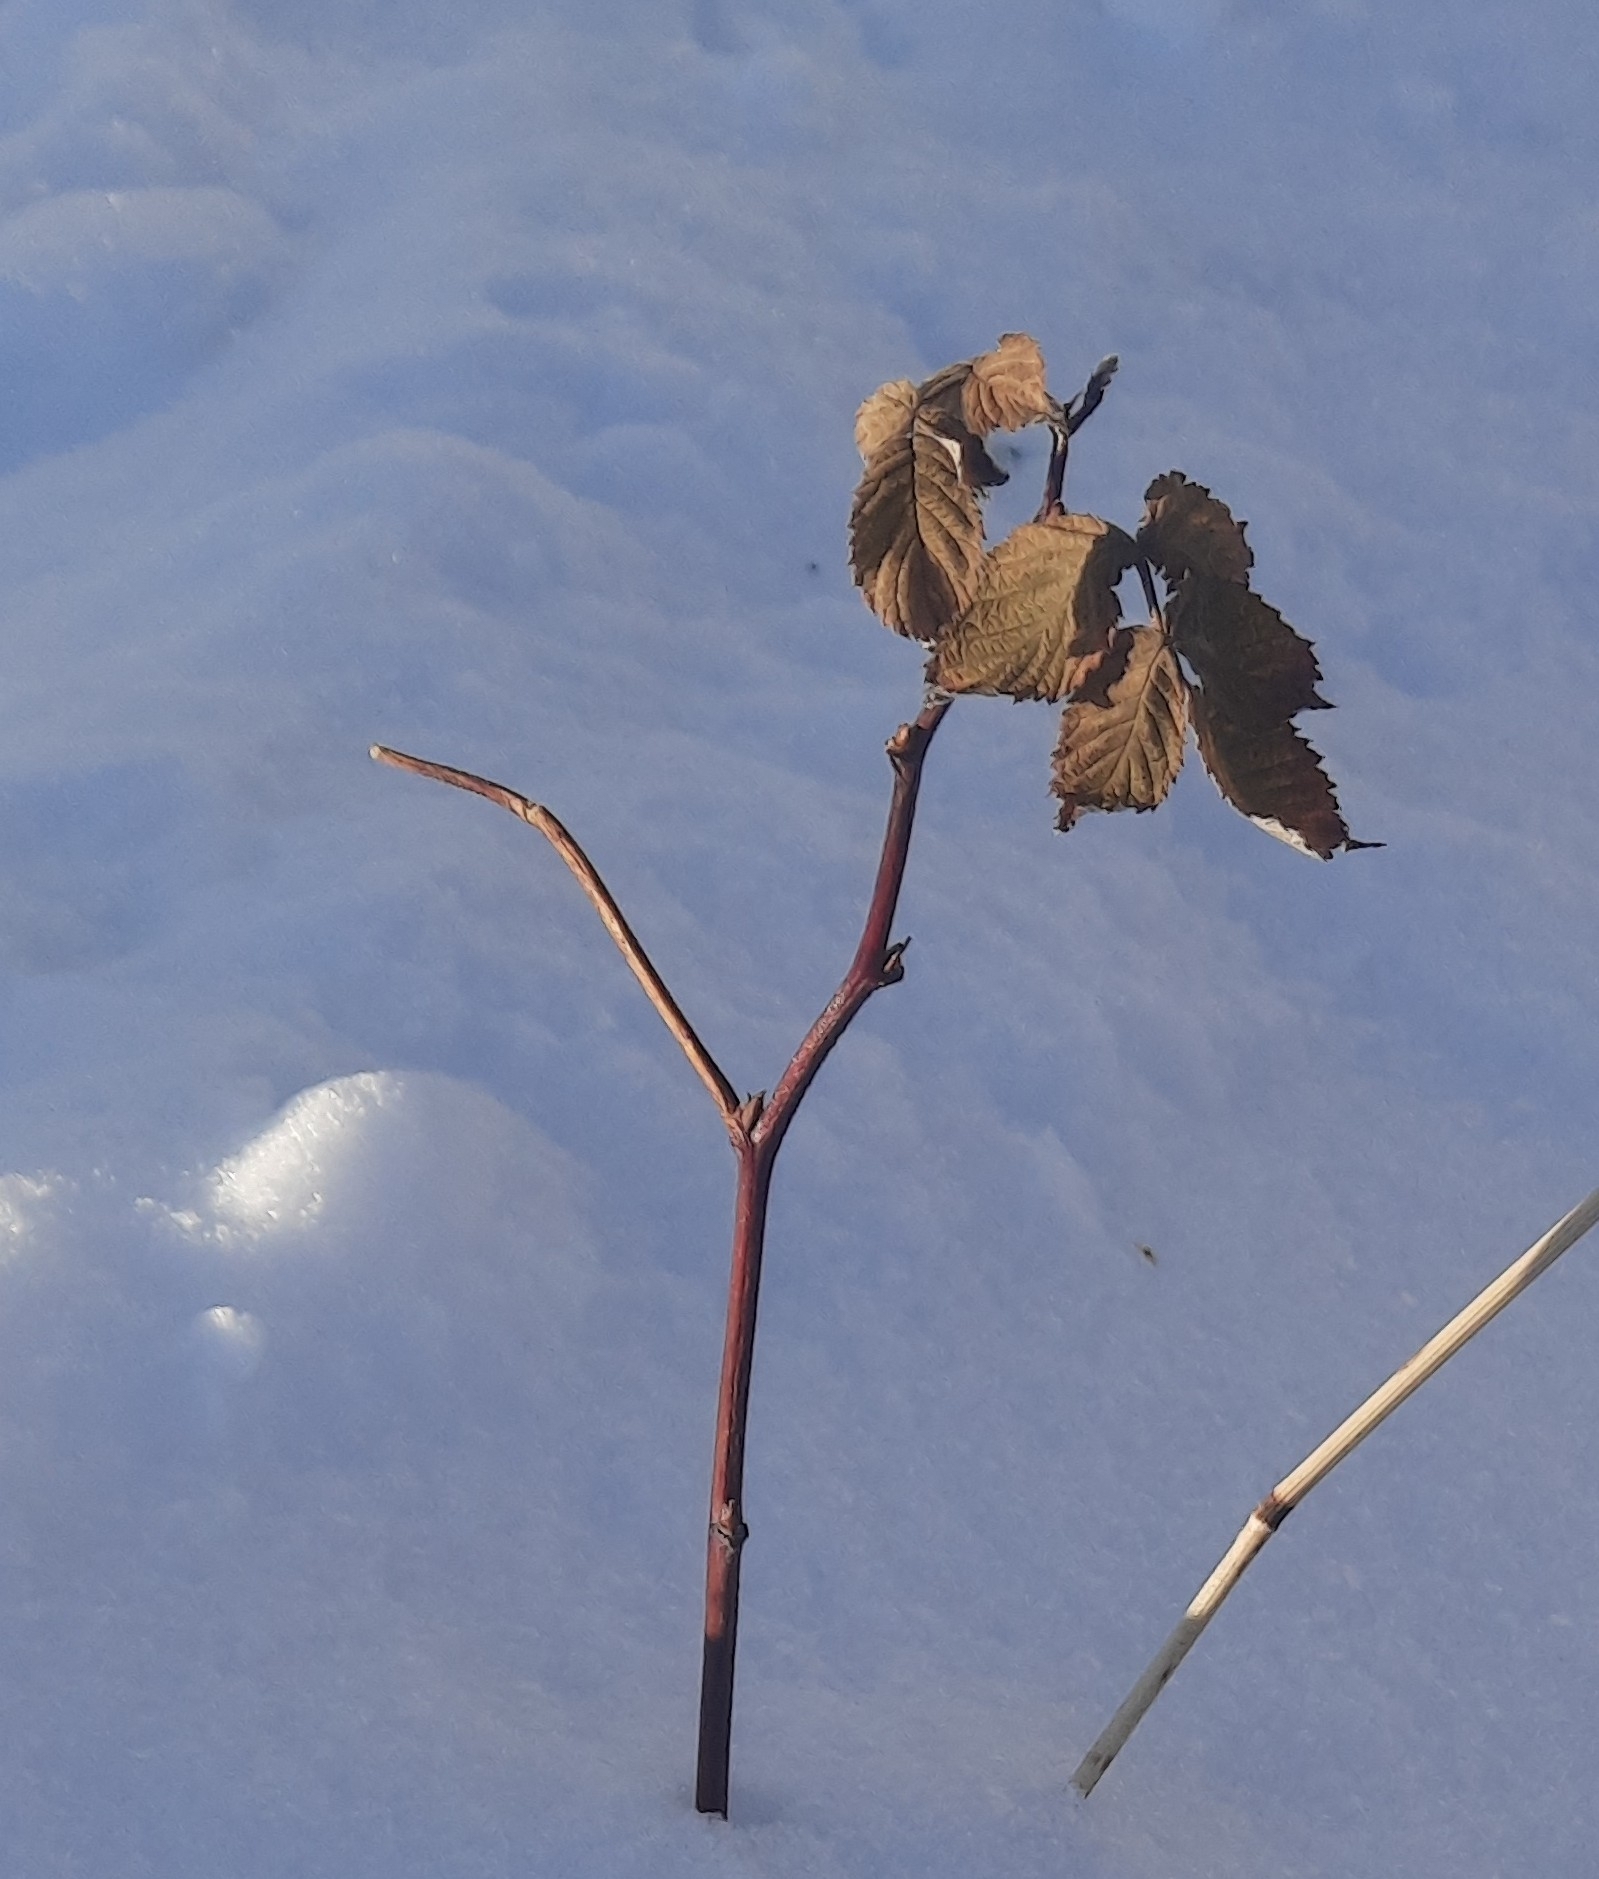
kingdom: Plantae
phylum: Tracheophyta
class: Magnoliopsida
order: Rosales
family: Rosaceae
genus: Rubus
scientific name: Rubus idaeus
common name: Raspberry
